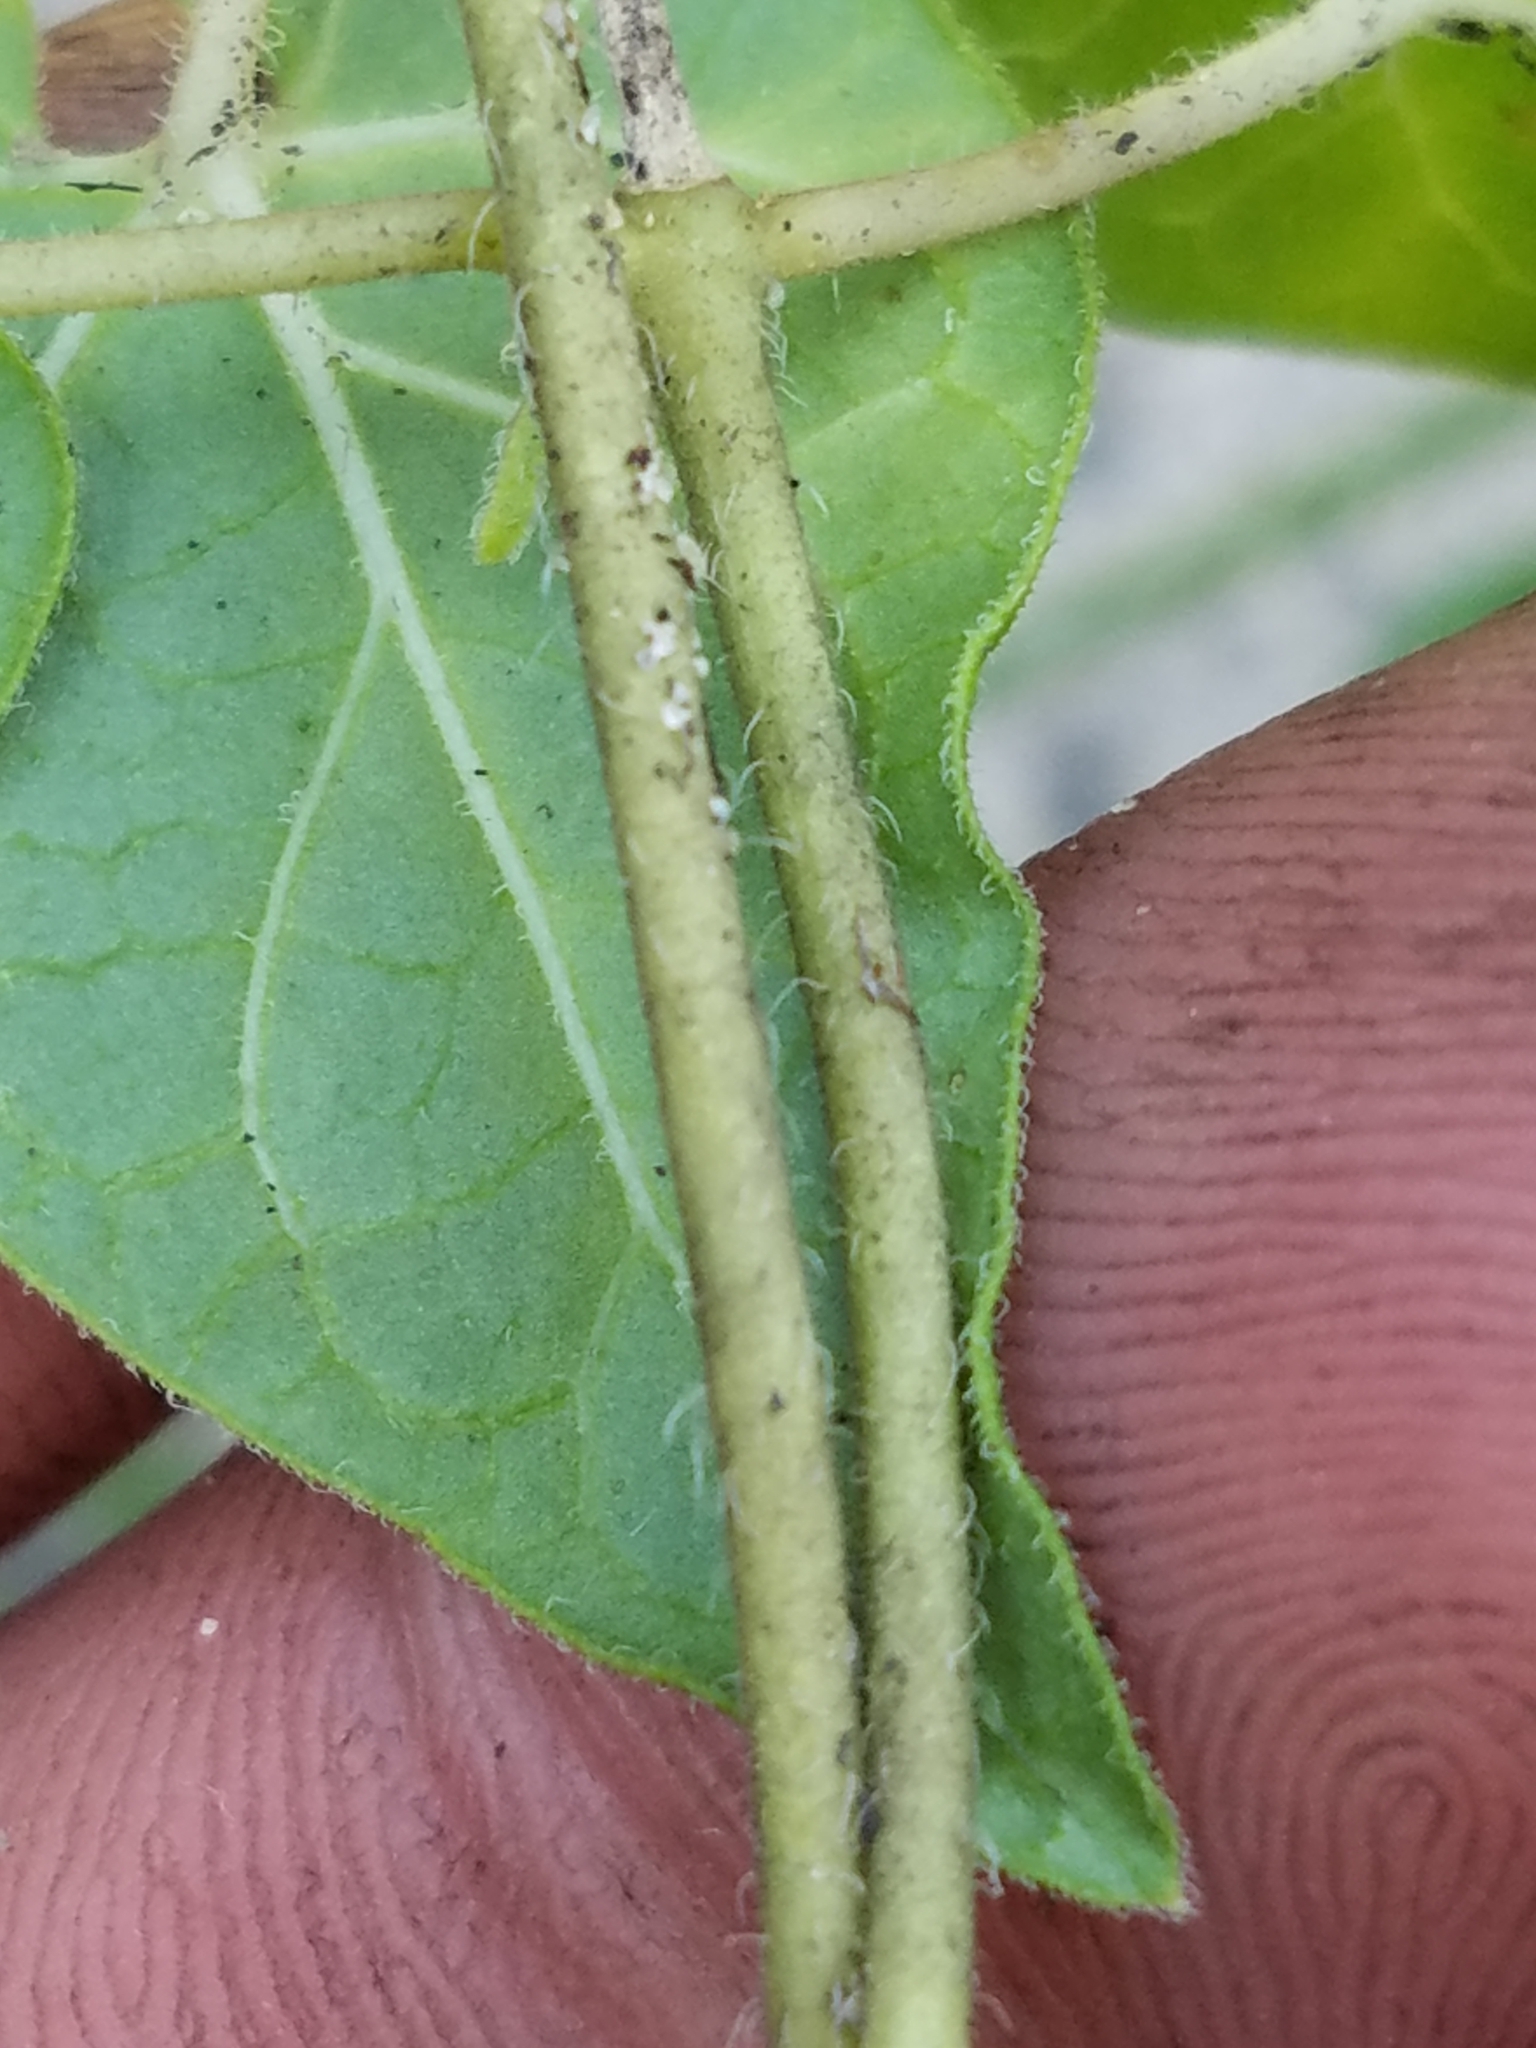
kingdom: Plantae
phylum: Tracheophyta
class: Magnoliopsida
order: Gentianales
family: Apocynaceae
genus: Chthamalia
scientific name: Chthamalia pubiflora
